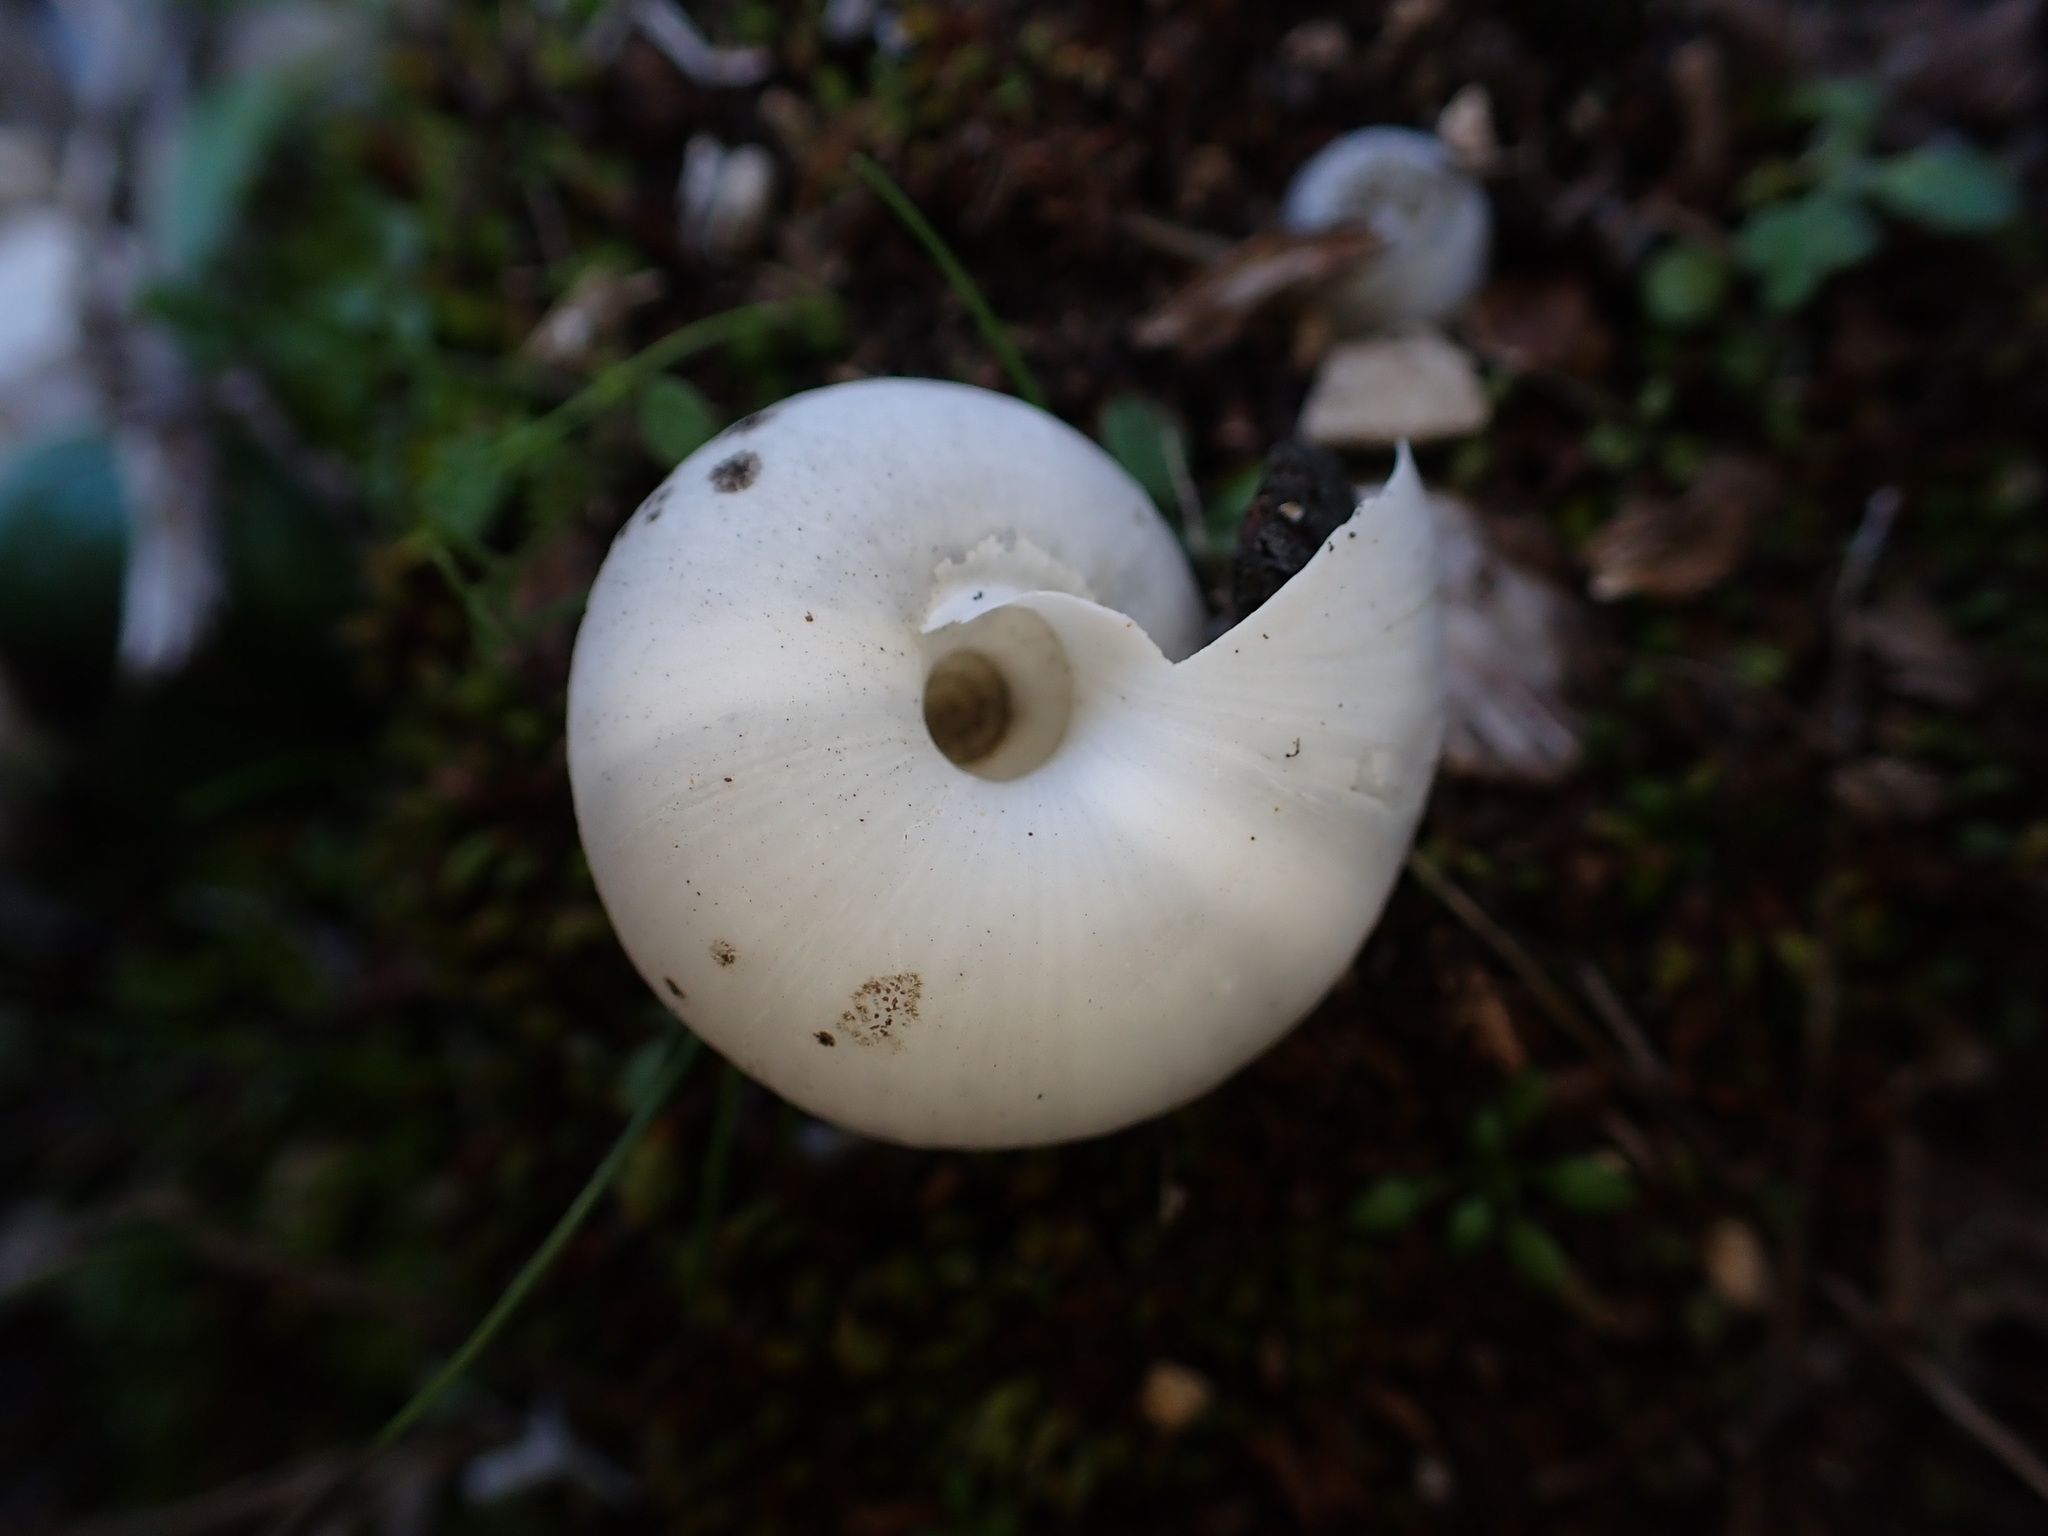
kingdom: Animalia
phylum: Mollusca
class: Gastropoda
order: Stylommatophora
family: Zonitidae
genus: Zonites
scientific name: Zonites algirus
